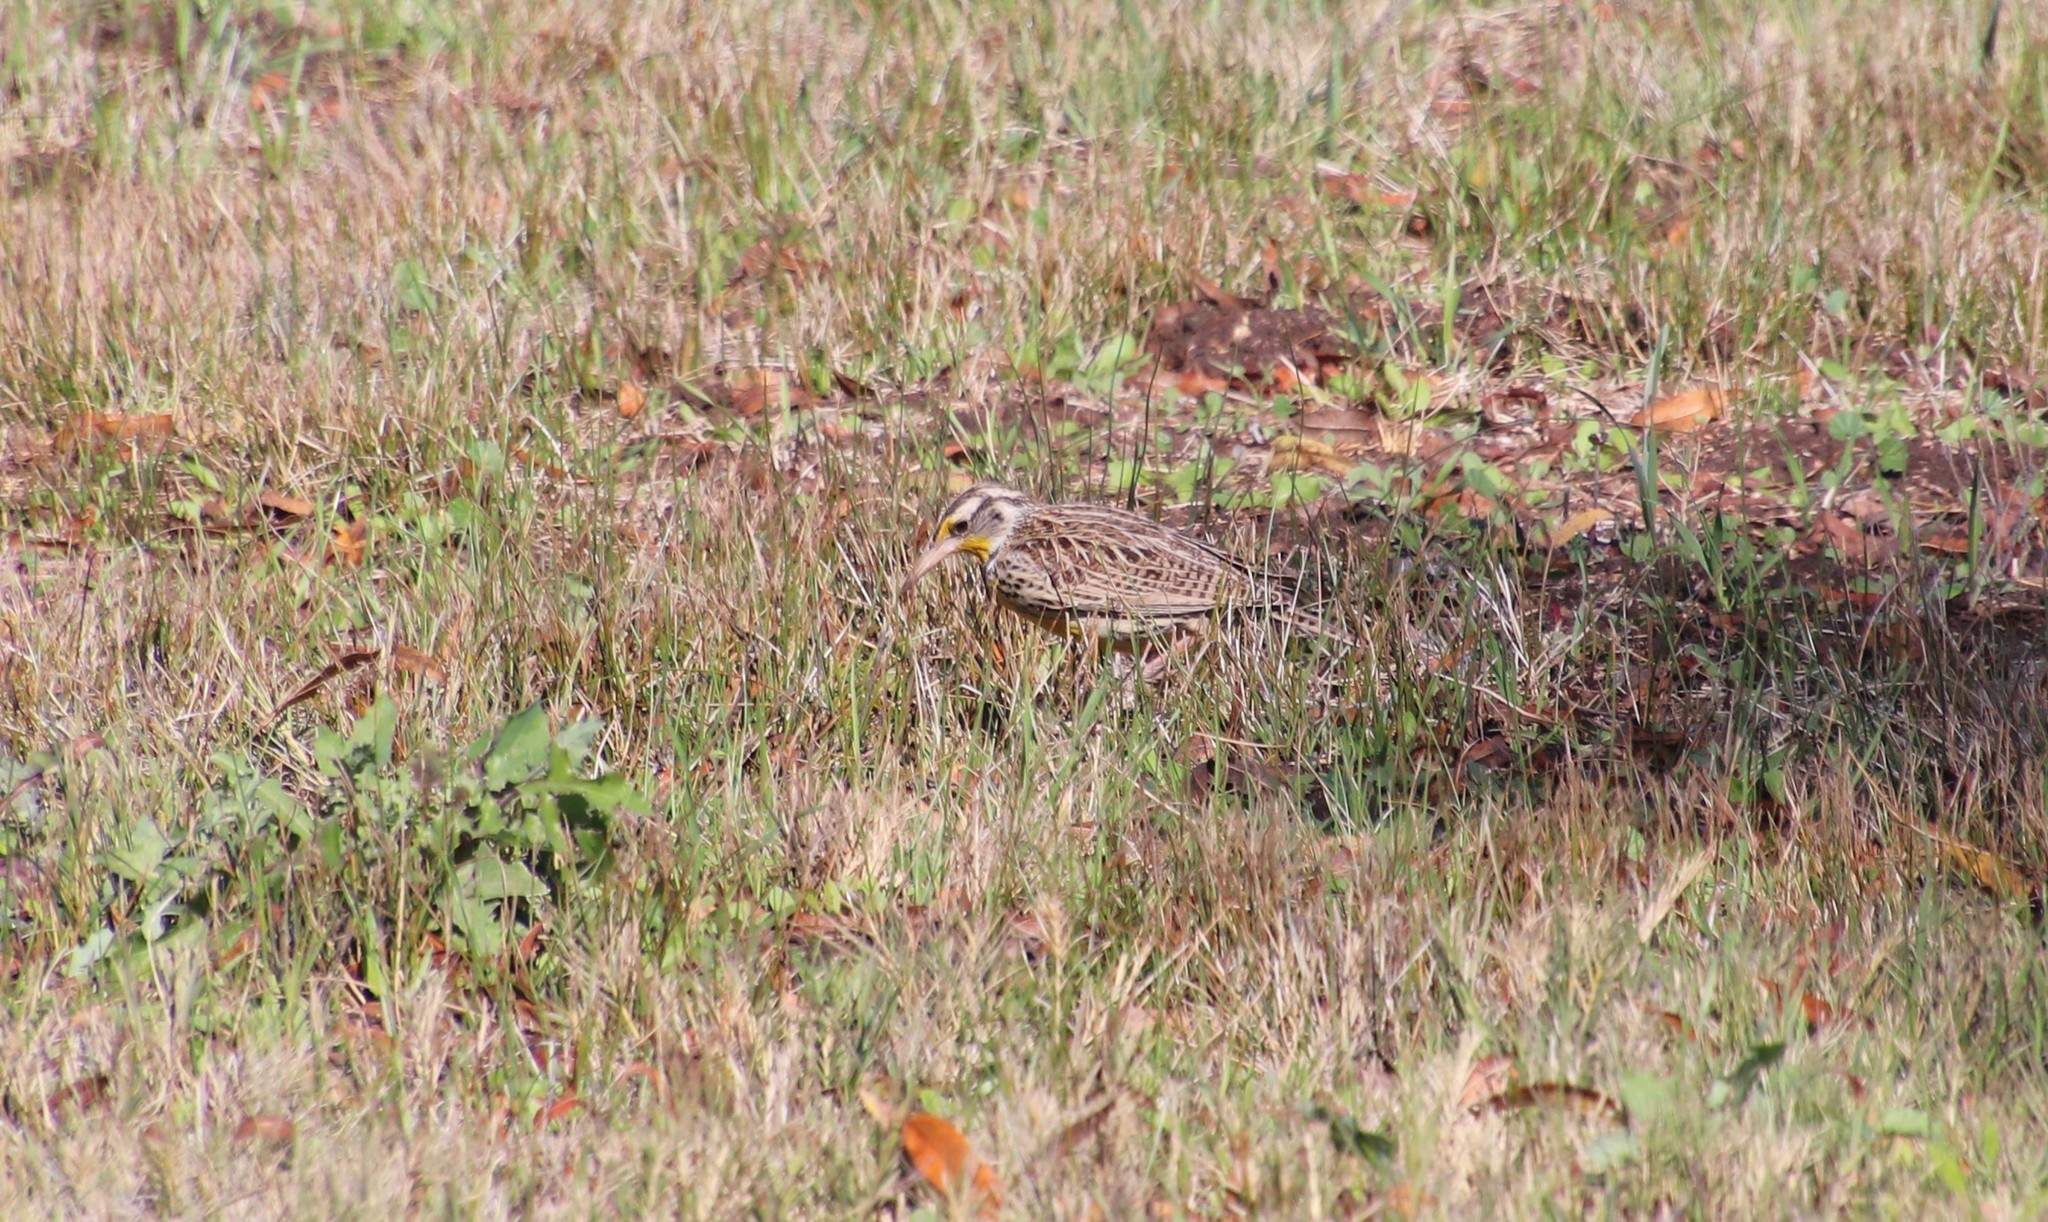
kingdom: Animalia
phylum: Chordata
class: Aves
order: Passeriformes
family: Icteridae
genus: Sturnella
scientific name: Sturnella neglecta
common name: Western meadowlark
